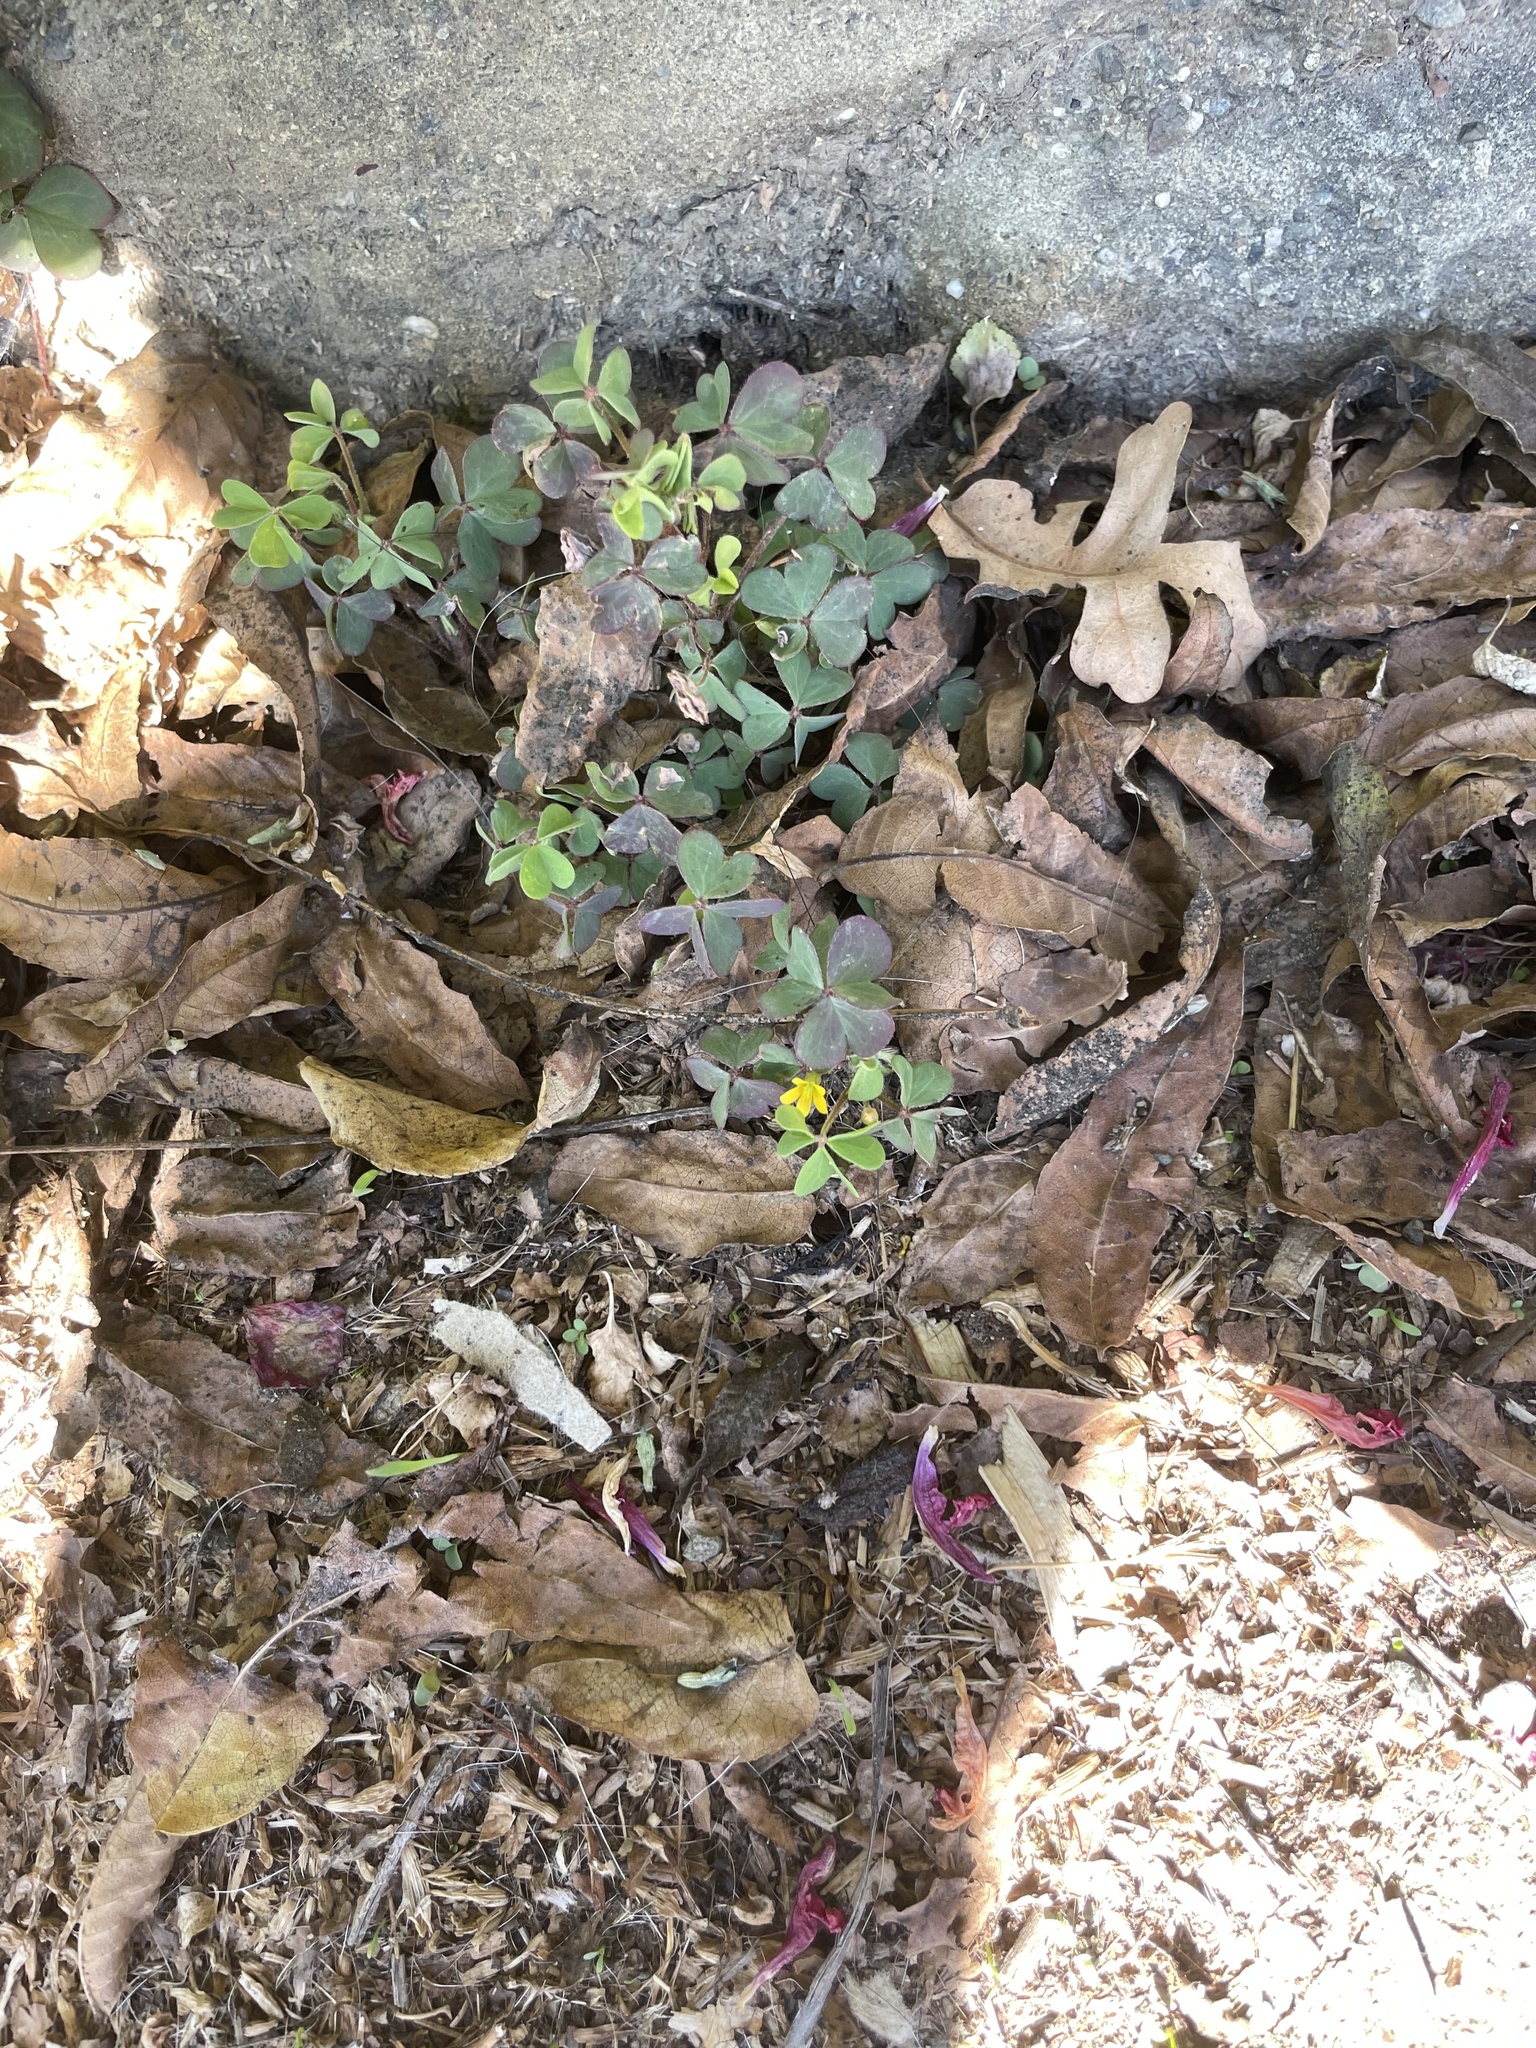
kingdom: Plantae
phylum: Tracheophyta
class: Magnoliopsida
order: Oxalidales
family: Oxalidaceae
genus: Oxalis
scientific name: Oxalis corniculata
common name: Procumbent yellow-sorrel
